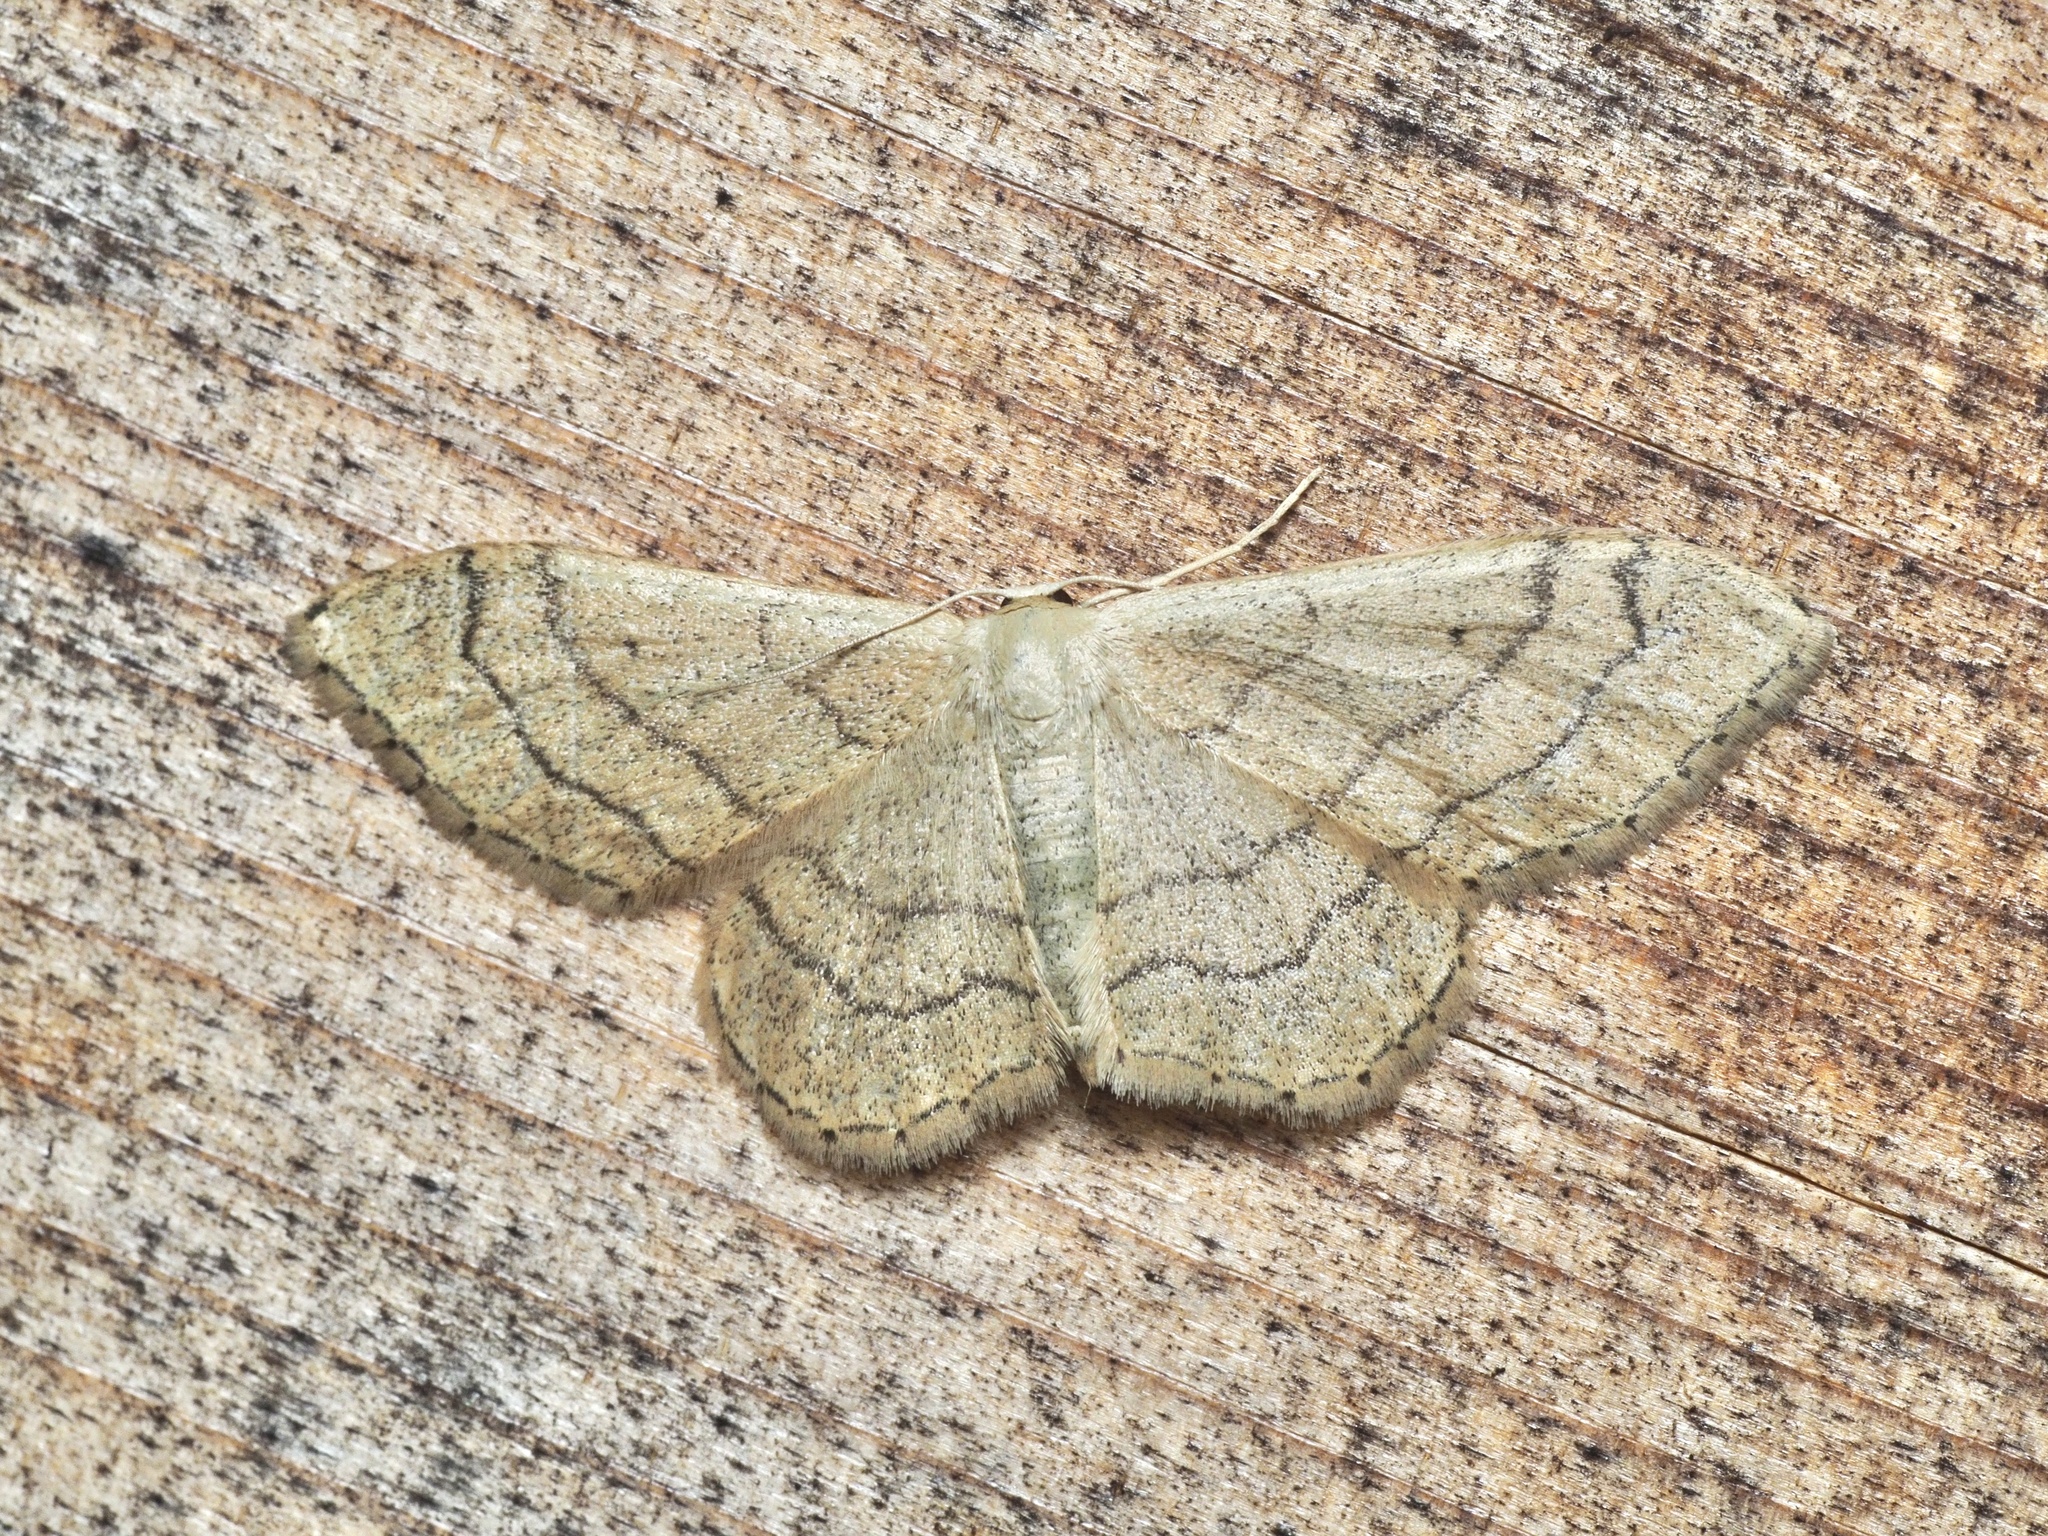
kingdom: Animalia
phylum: Arthropoda
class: Insecta
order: Lepidoptera
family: Geometridae
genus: Idaea
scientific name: Idaea aversata
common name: Riband wave
